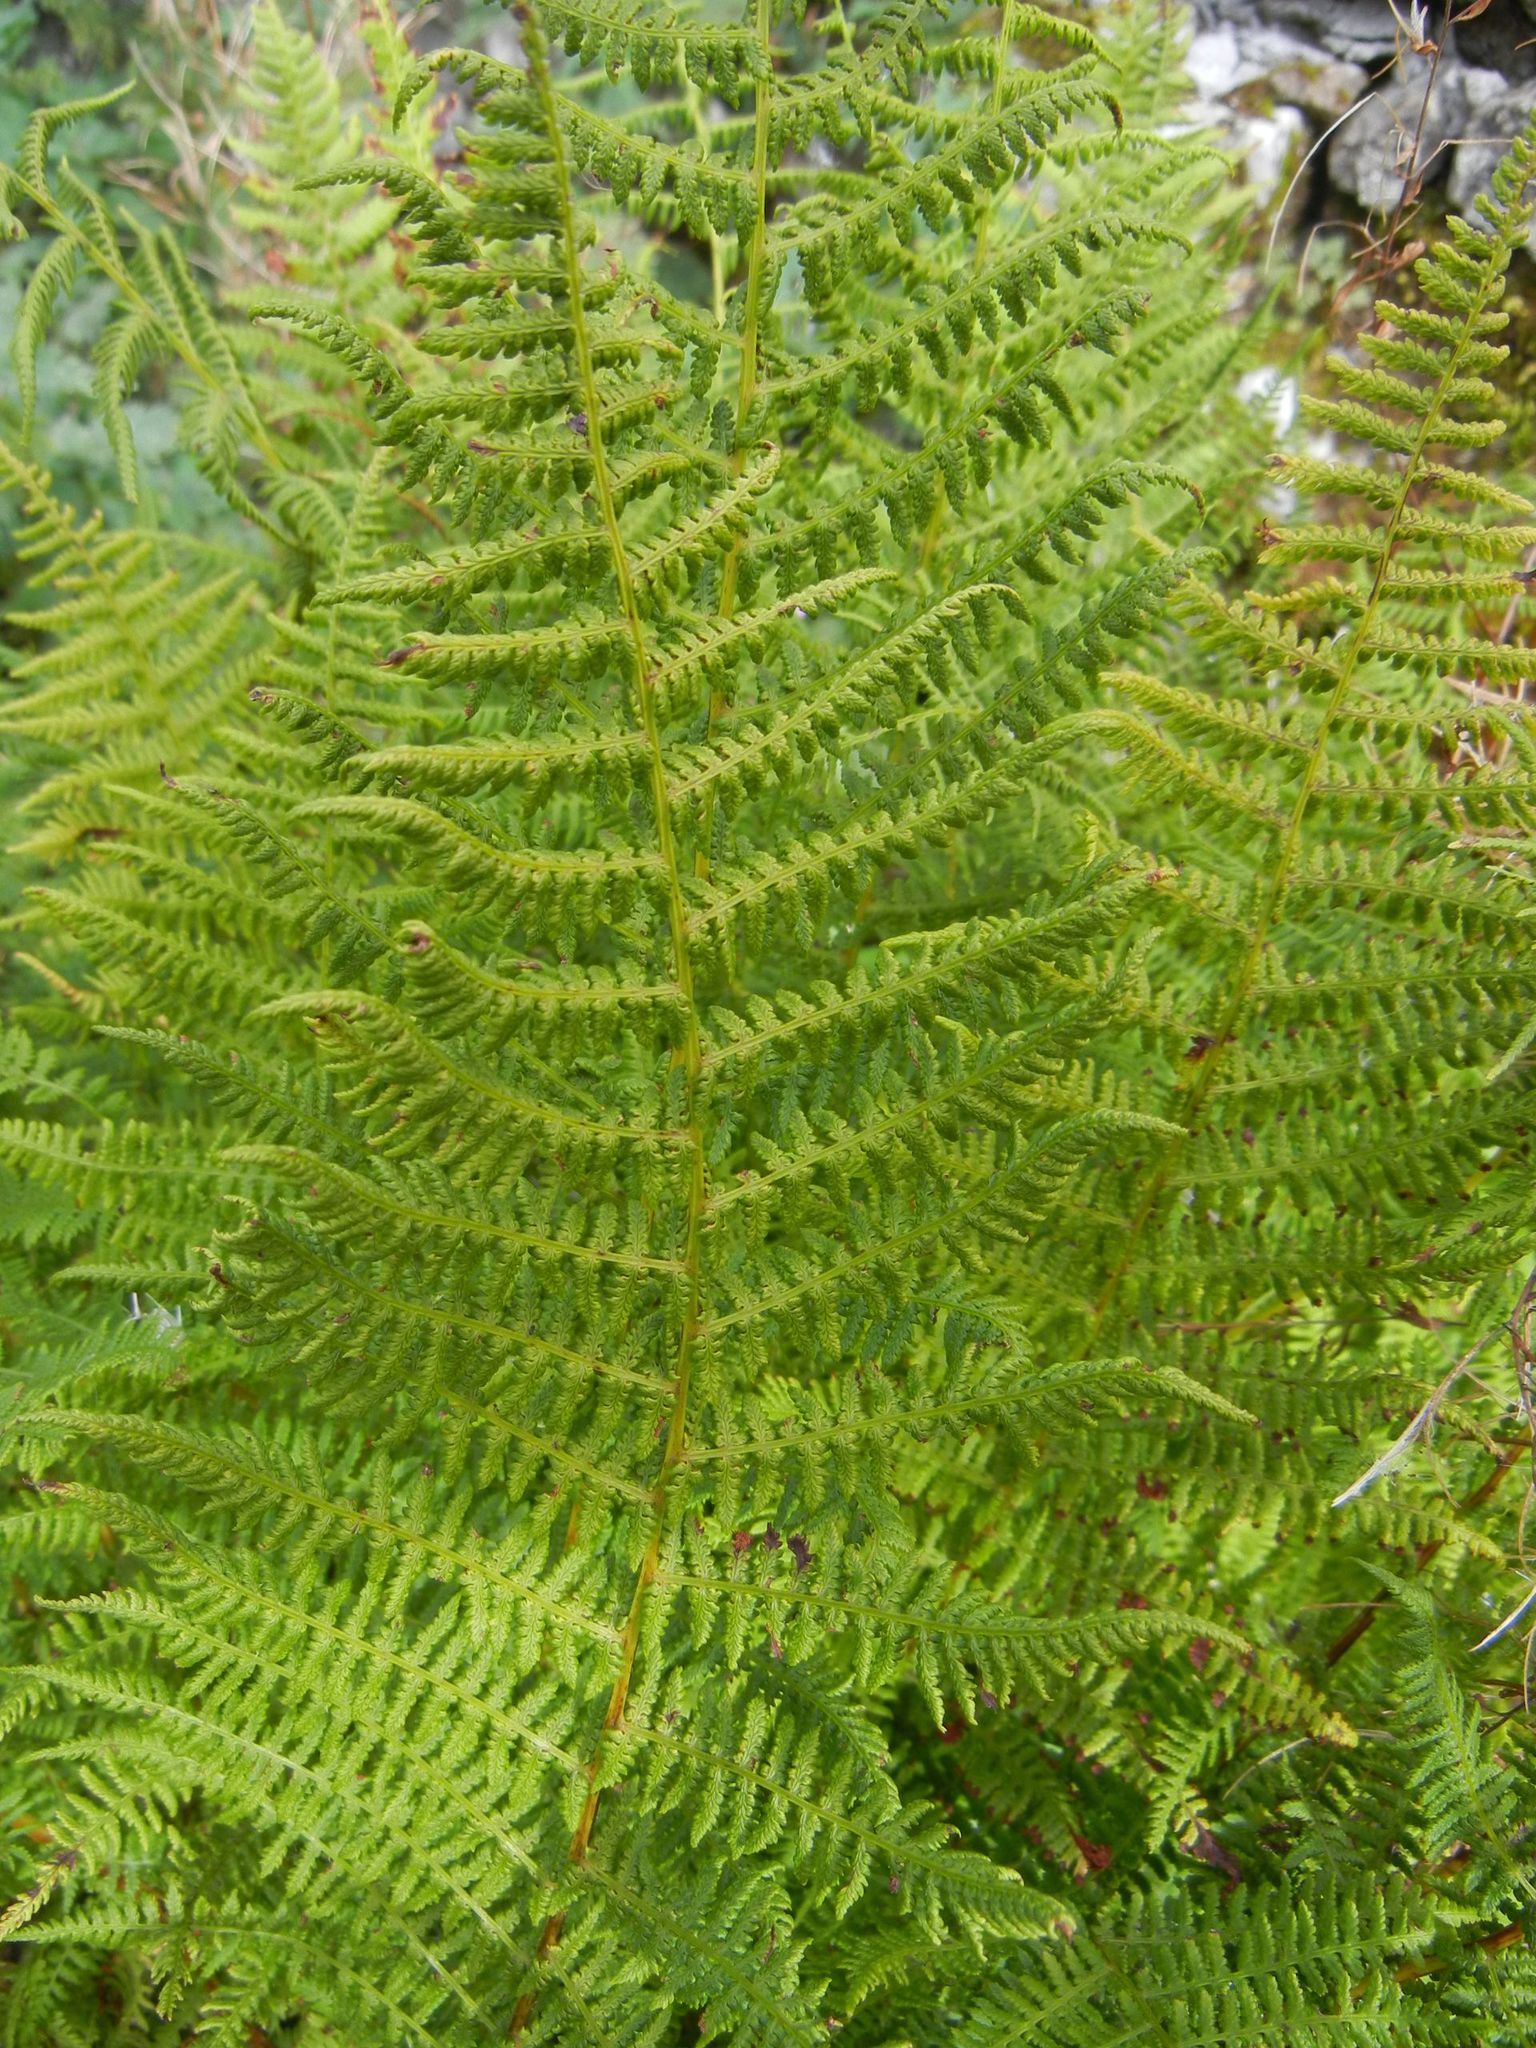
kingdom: Plantae
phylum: Tracheophyta
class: Polypodiopsida
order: Polypodiales
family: Athyriaceae
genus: Athyrium
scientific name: Athyrium filix-femina
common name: Lady fern
